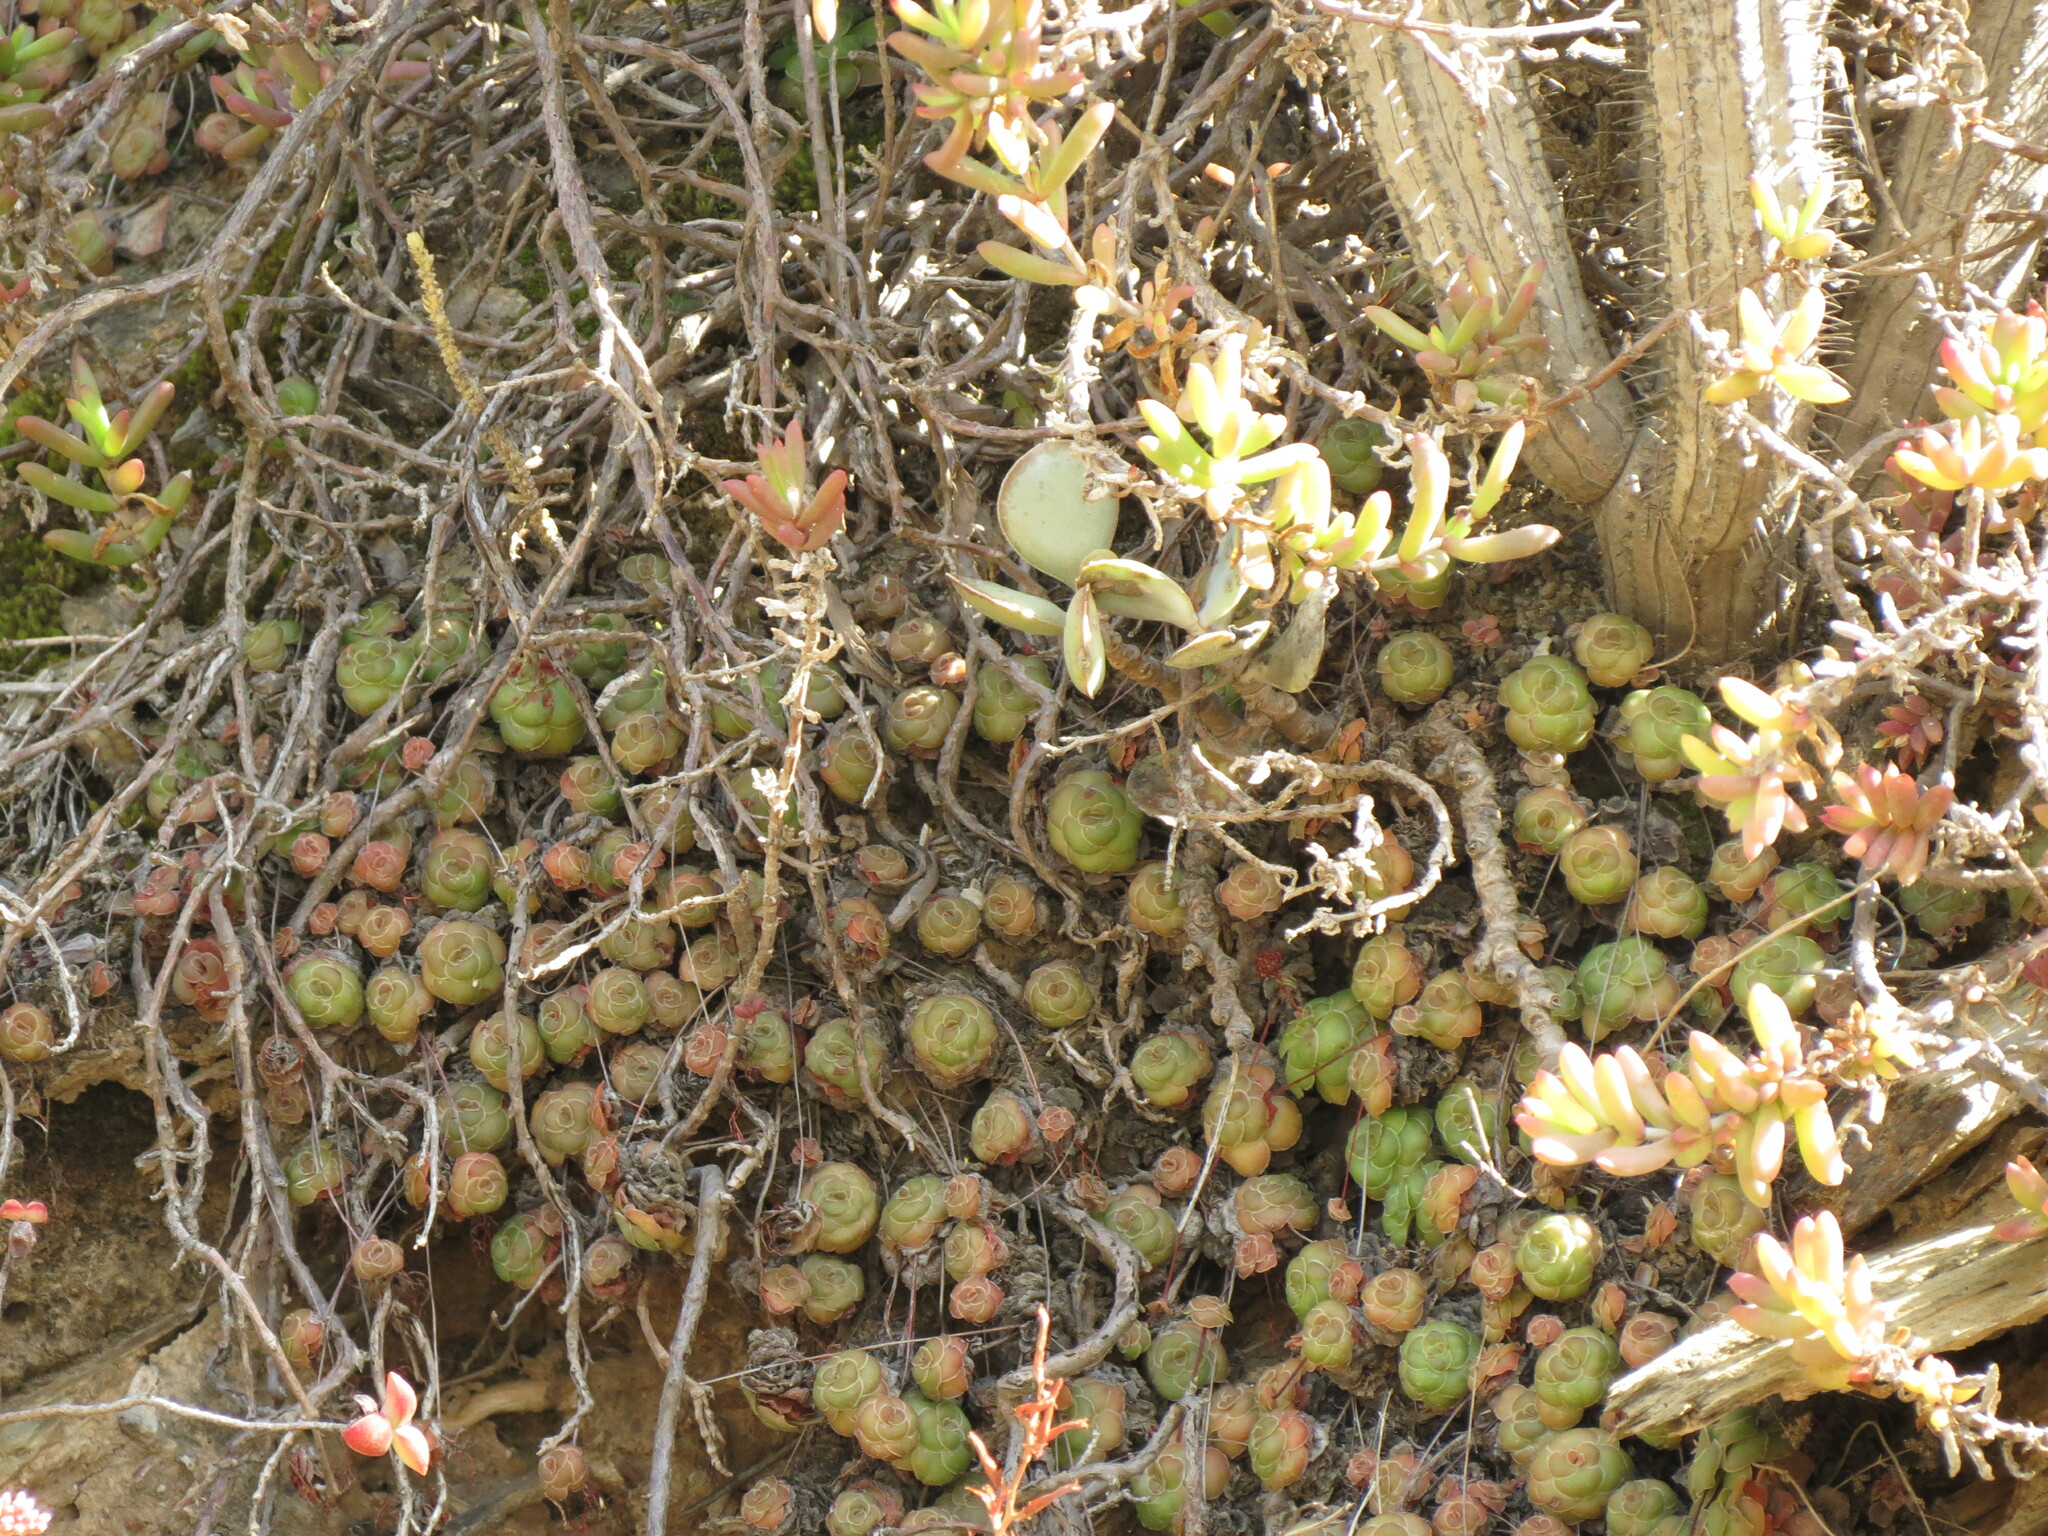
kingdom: Plantae
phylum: Tracheophyta
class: Magnoliopsida
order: Saxifragales
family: Crassulaceae
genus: Crassula
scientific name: Crassula orbicularis
